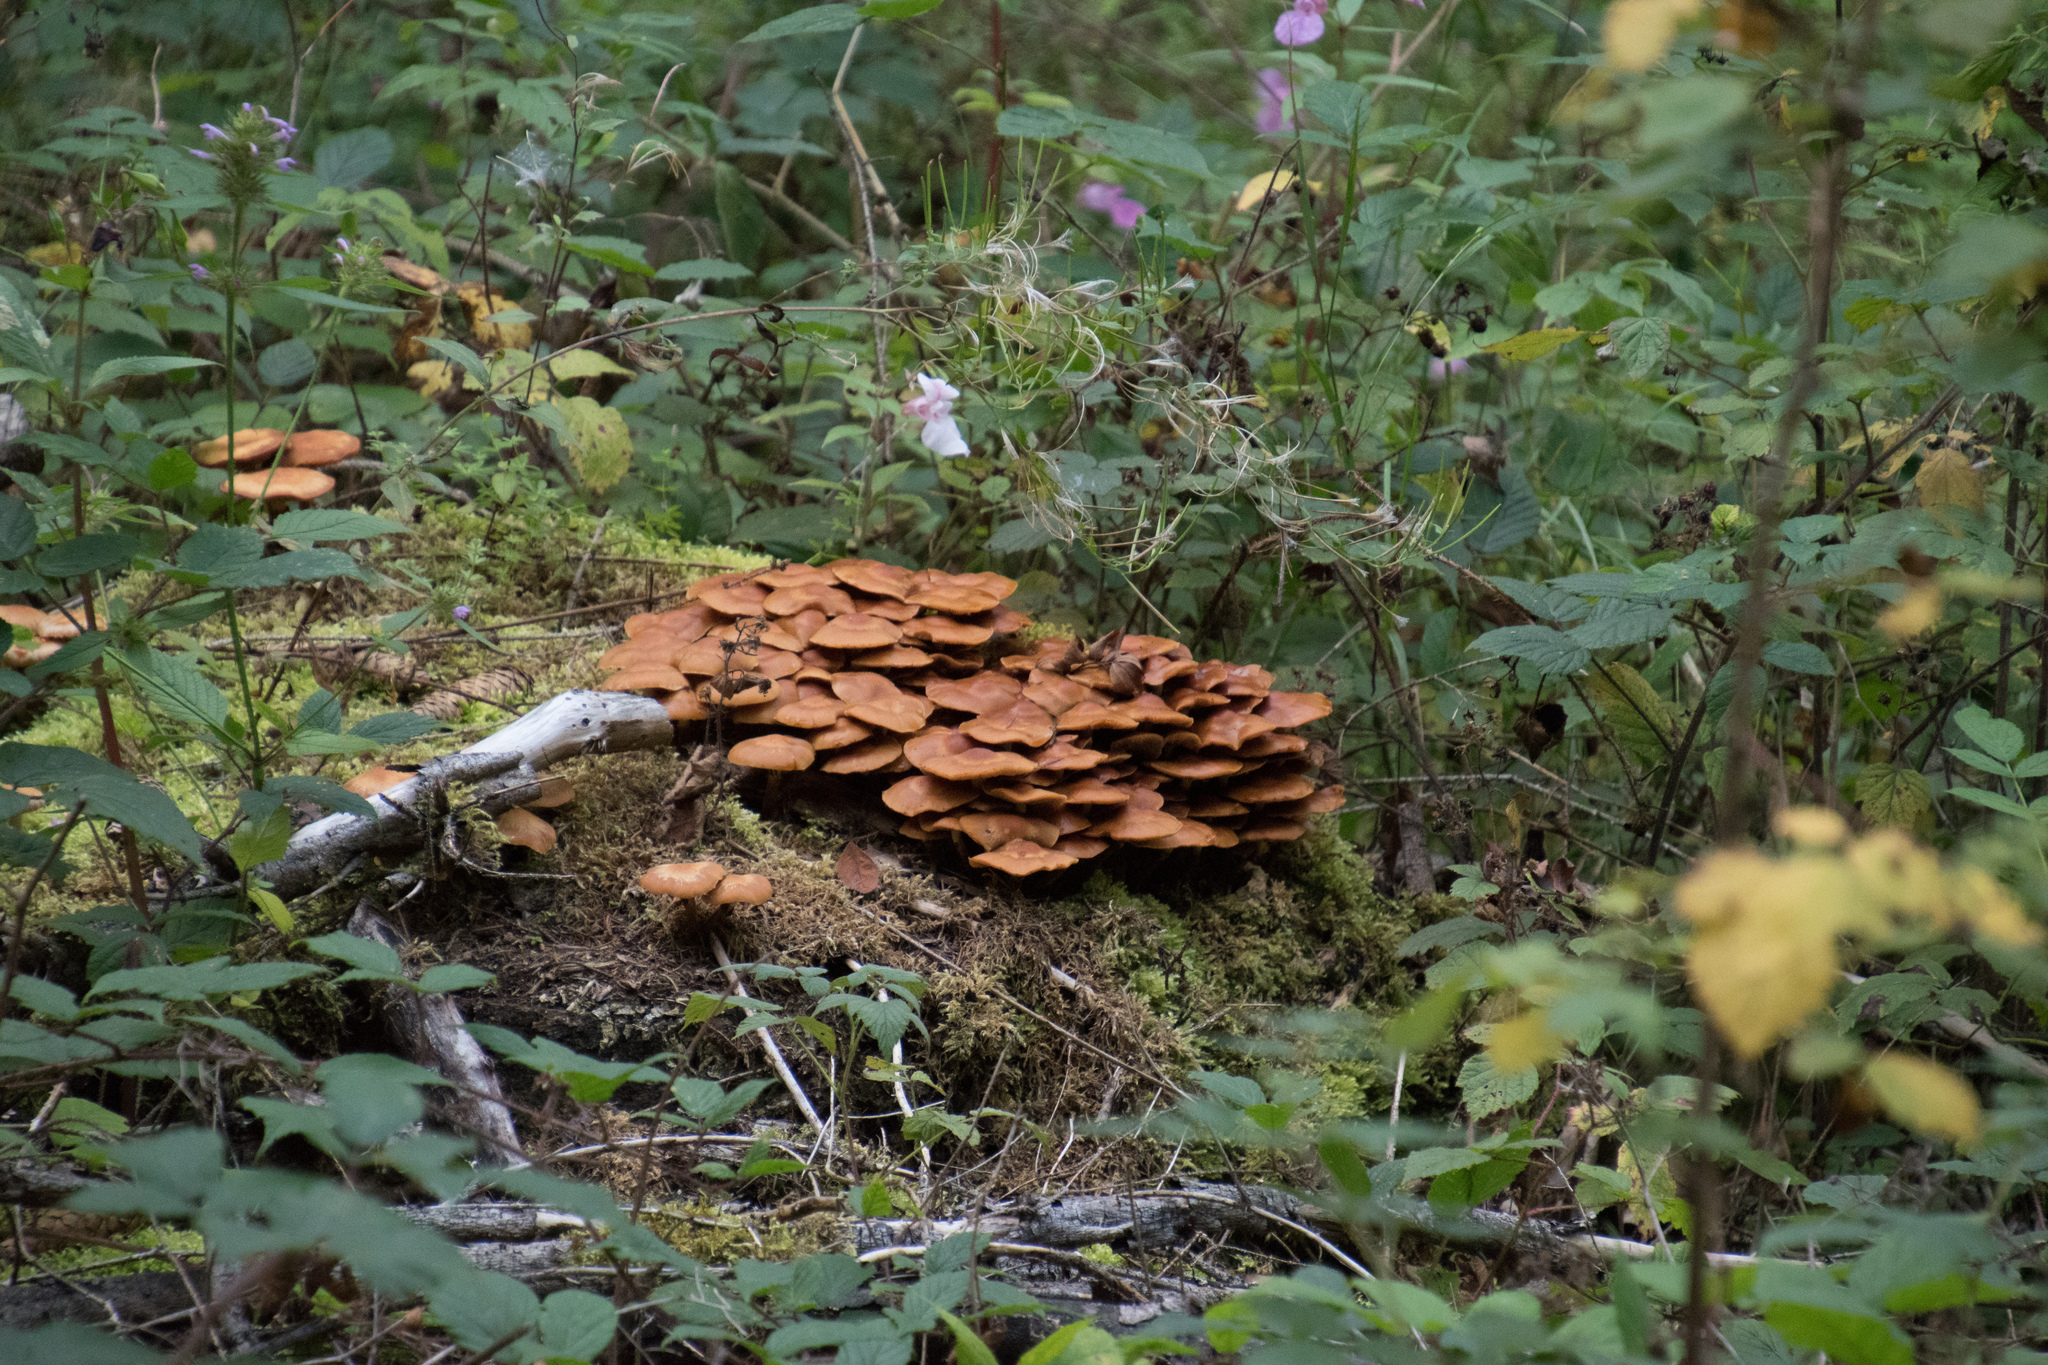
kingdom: Fungi
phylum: Basidiomycota
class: Agaricomycetes
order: Agaricales
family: Strophariaceae
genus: Kuehneromyces
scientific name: Kuehneromyces mutabilis
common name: Sheathed woodtuft
